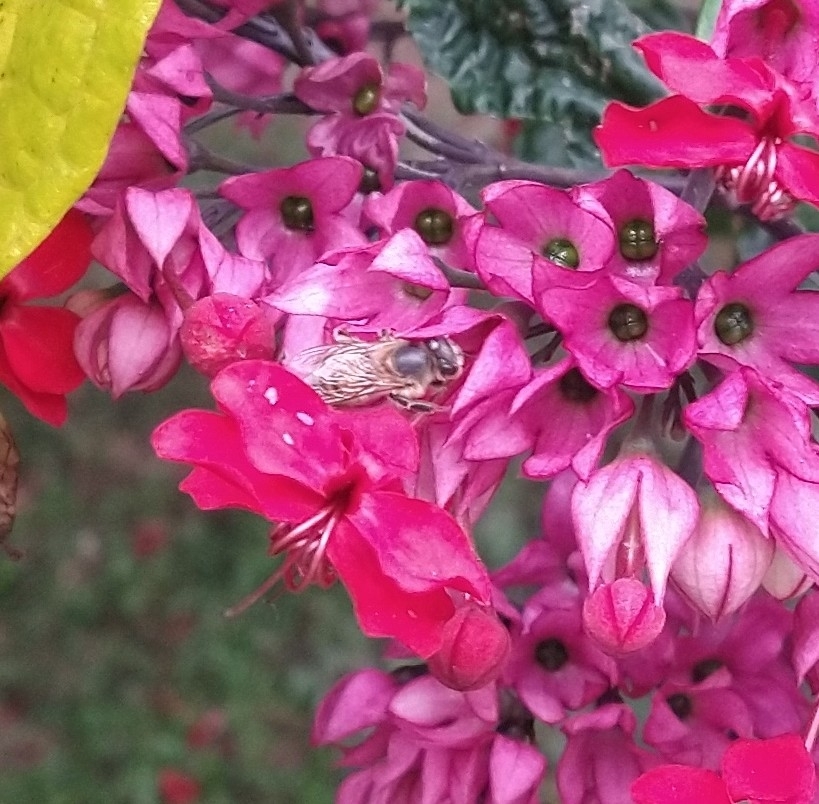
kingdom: Animalia
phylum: Arthropoda
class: Insecta
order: Hymenoptera
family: Apidae
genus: Apis
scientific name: Apis mellifera
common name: Honey bee
